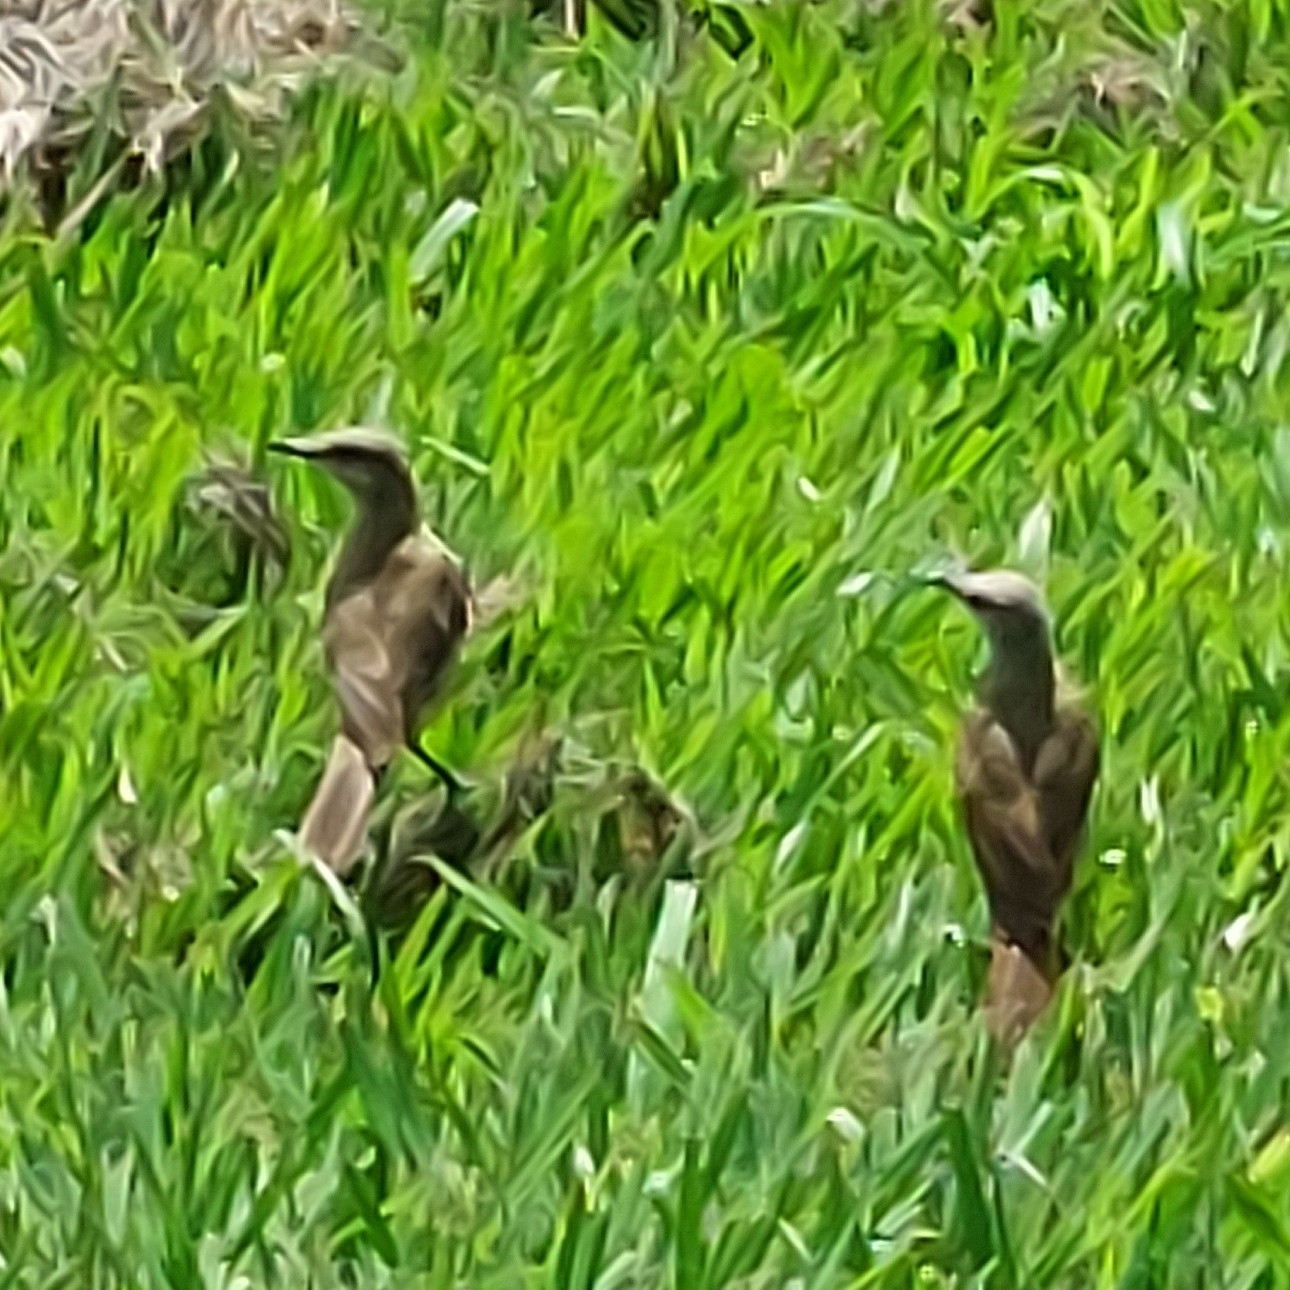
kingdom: Animalia
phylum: Chordata
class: Aves
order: Passeriformes
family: Tyrannidae
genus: Machetornis
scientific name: Machetornis rixosa
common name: Cattle tyrant
